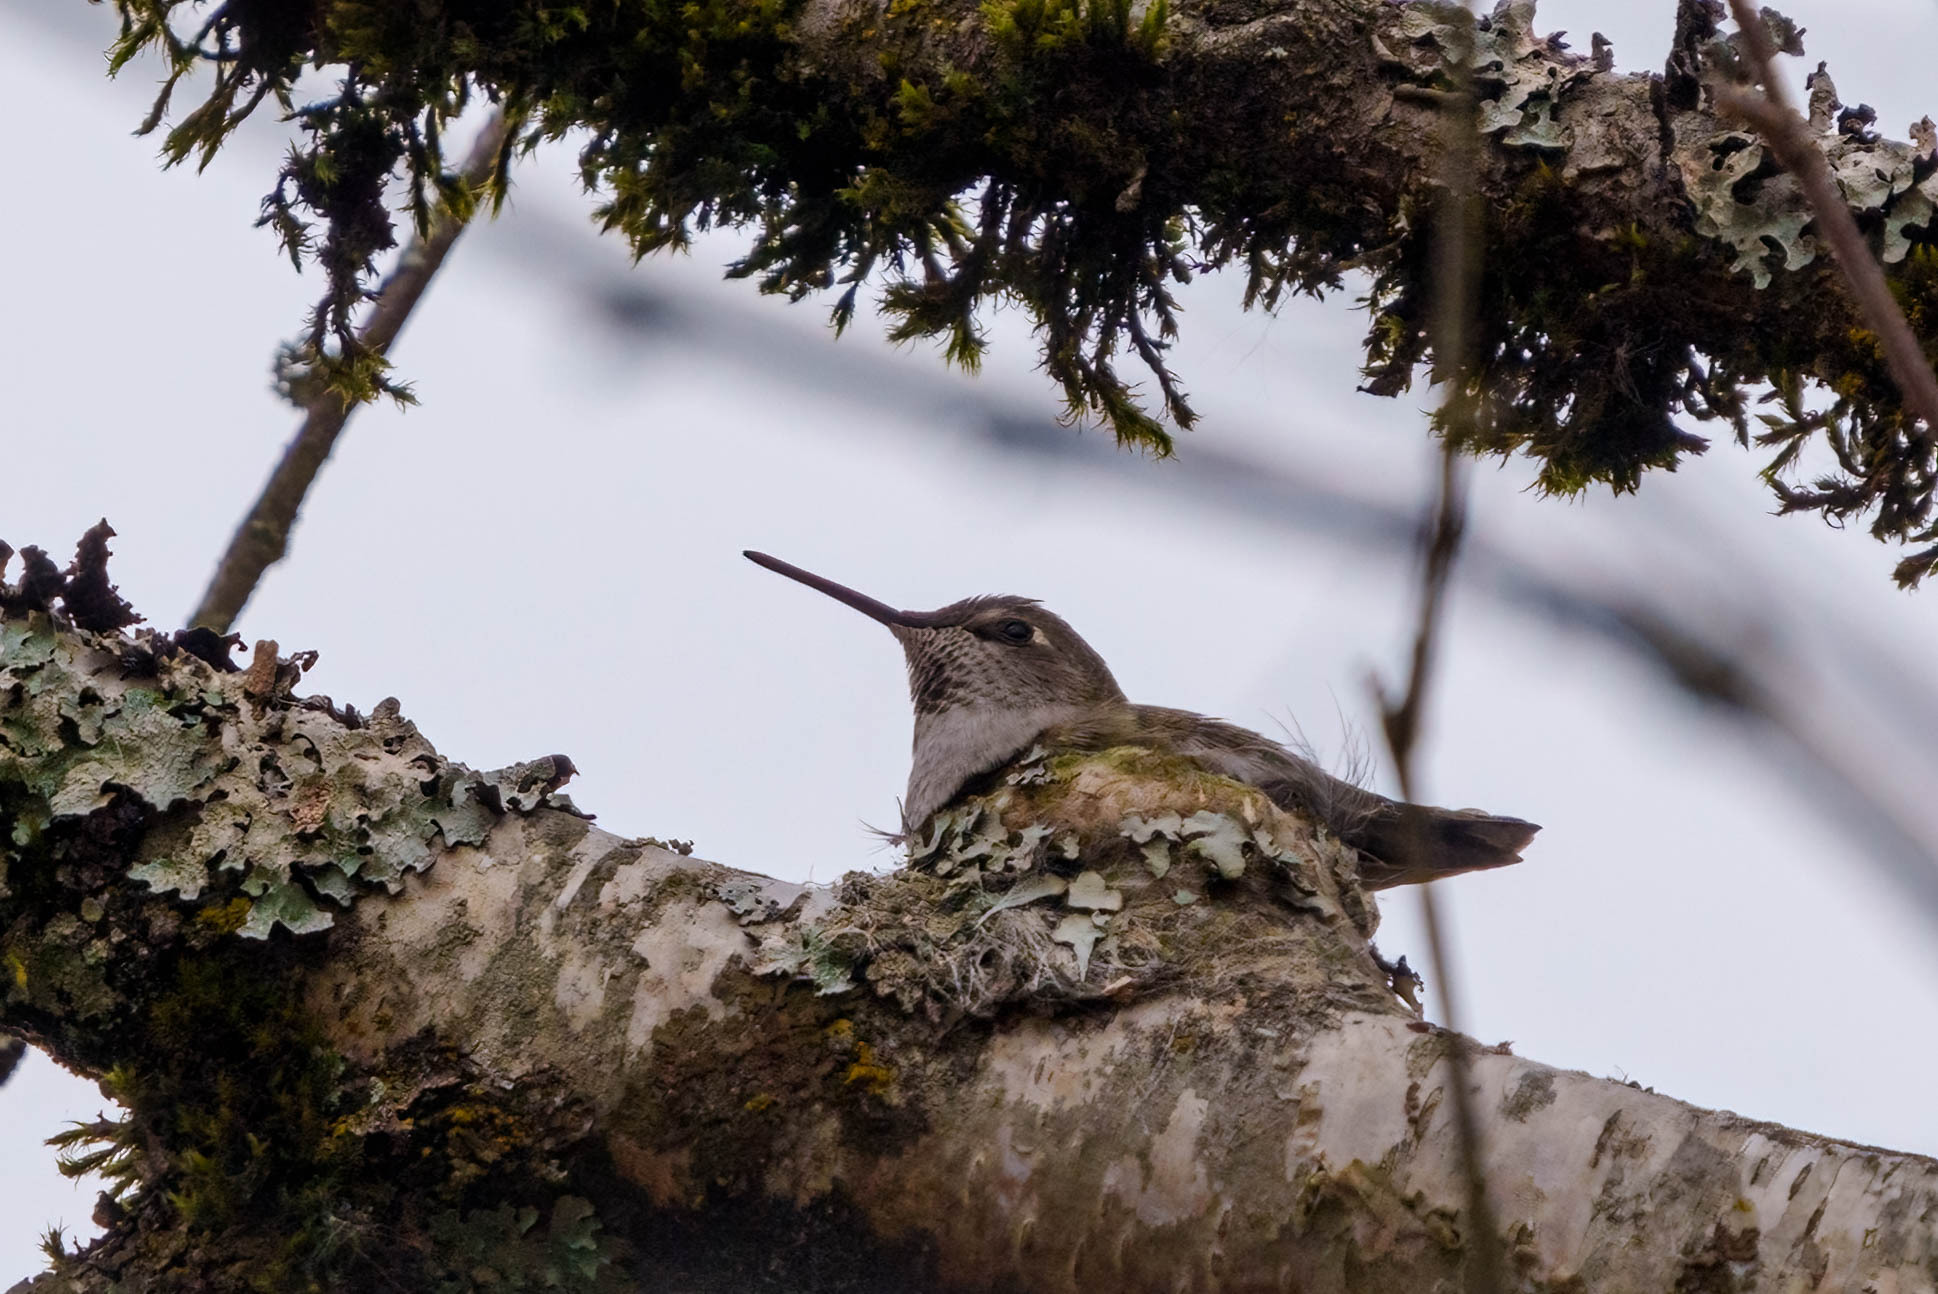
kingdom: Animalia
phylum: Chordata
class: Aves
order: Apodiformes
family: Trochilidae
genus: Calypte
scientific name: Calypte anna
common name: Anna's hummingbird
